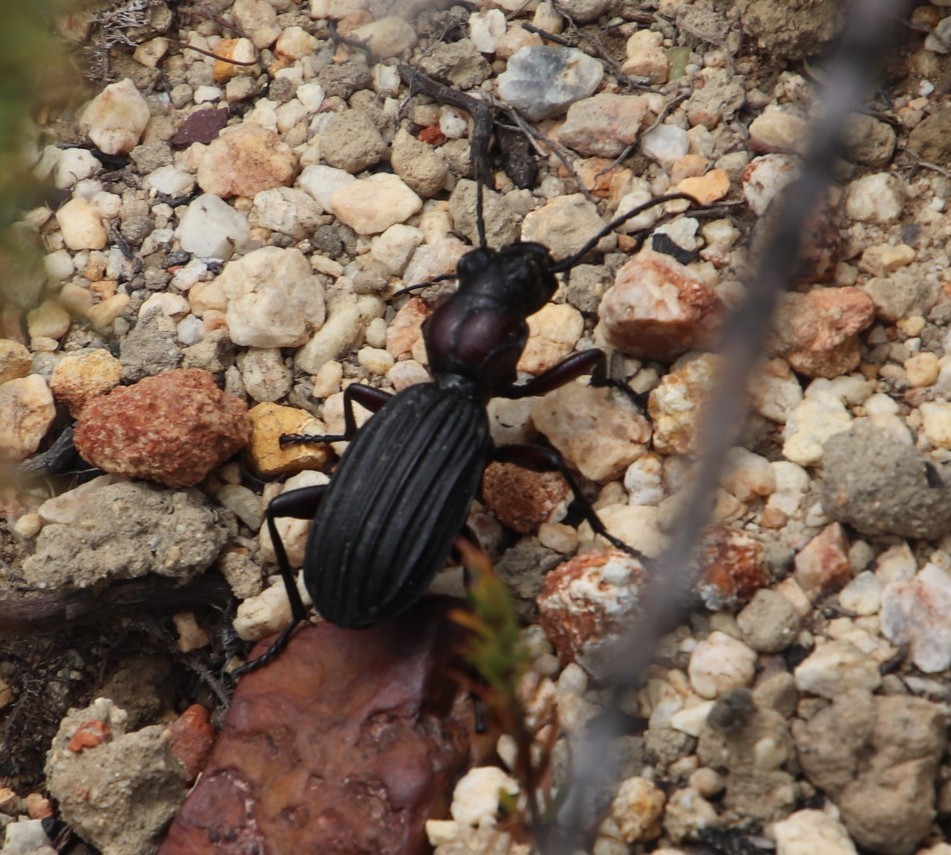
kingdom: Animalia
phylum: Arthropoda
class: Insecta
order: Coleoptera
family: Carabidae
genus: Anthia
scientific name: Anthia decemguttata
